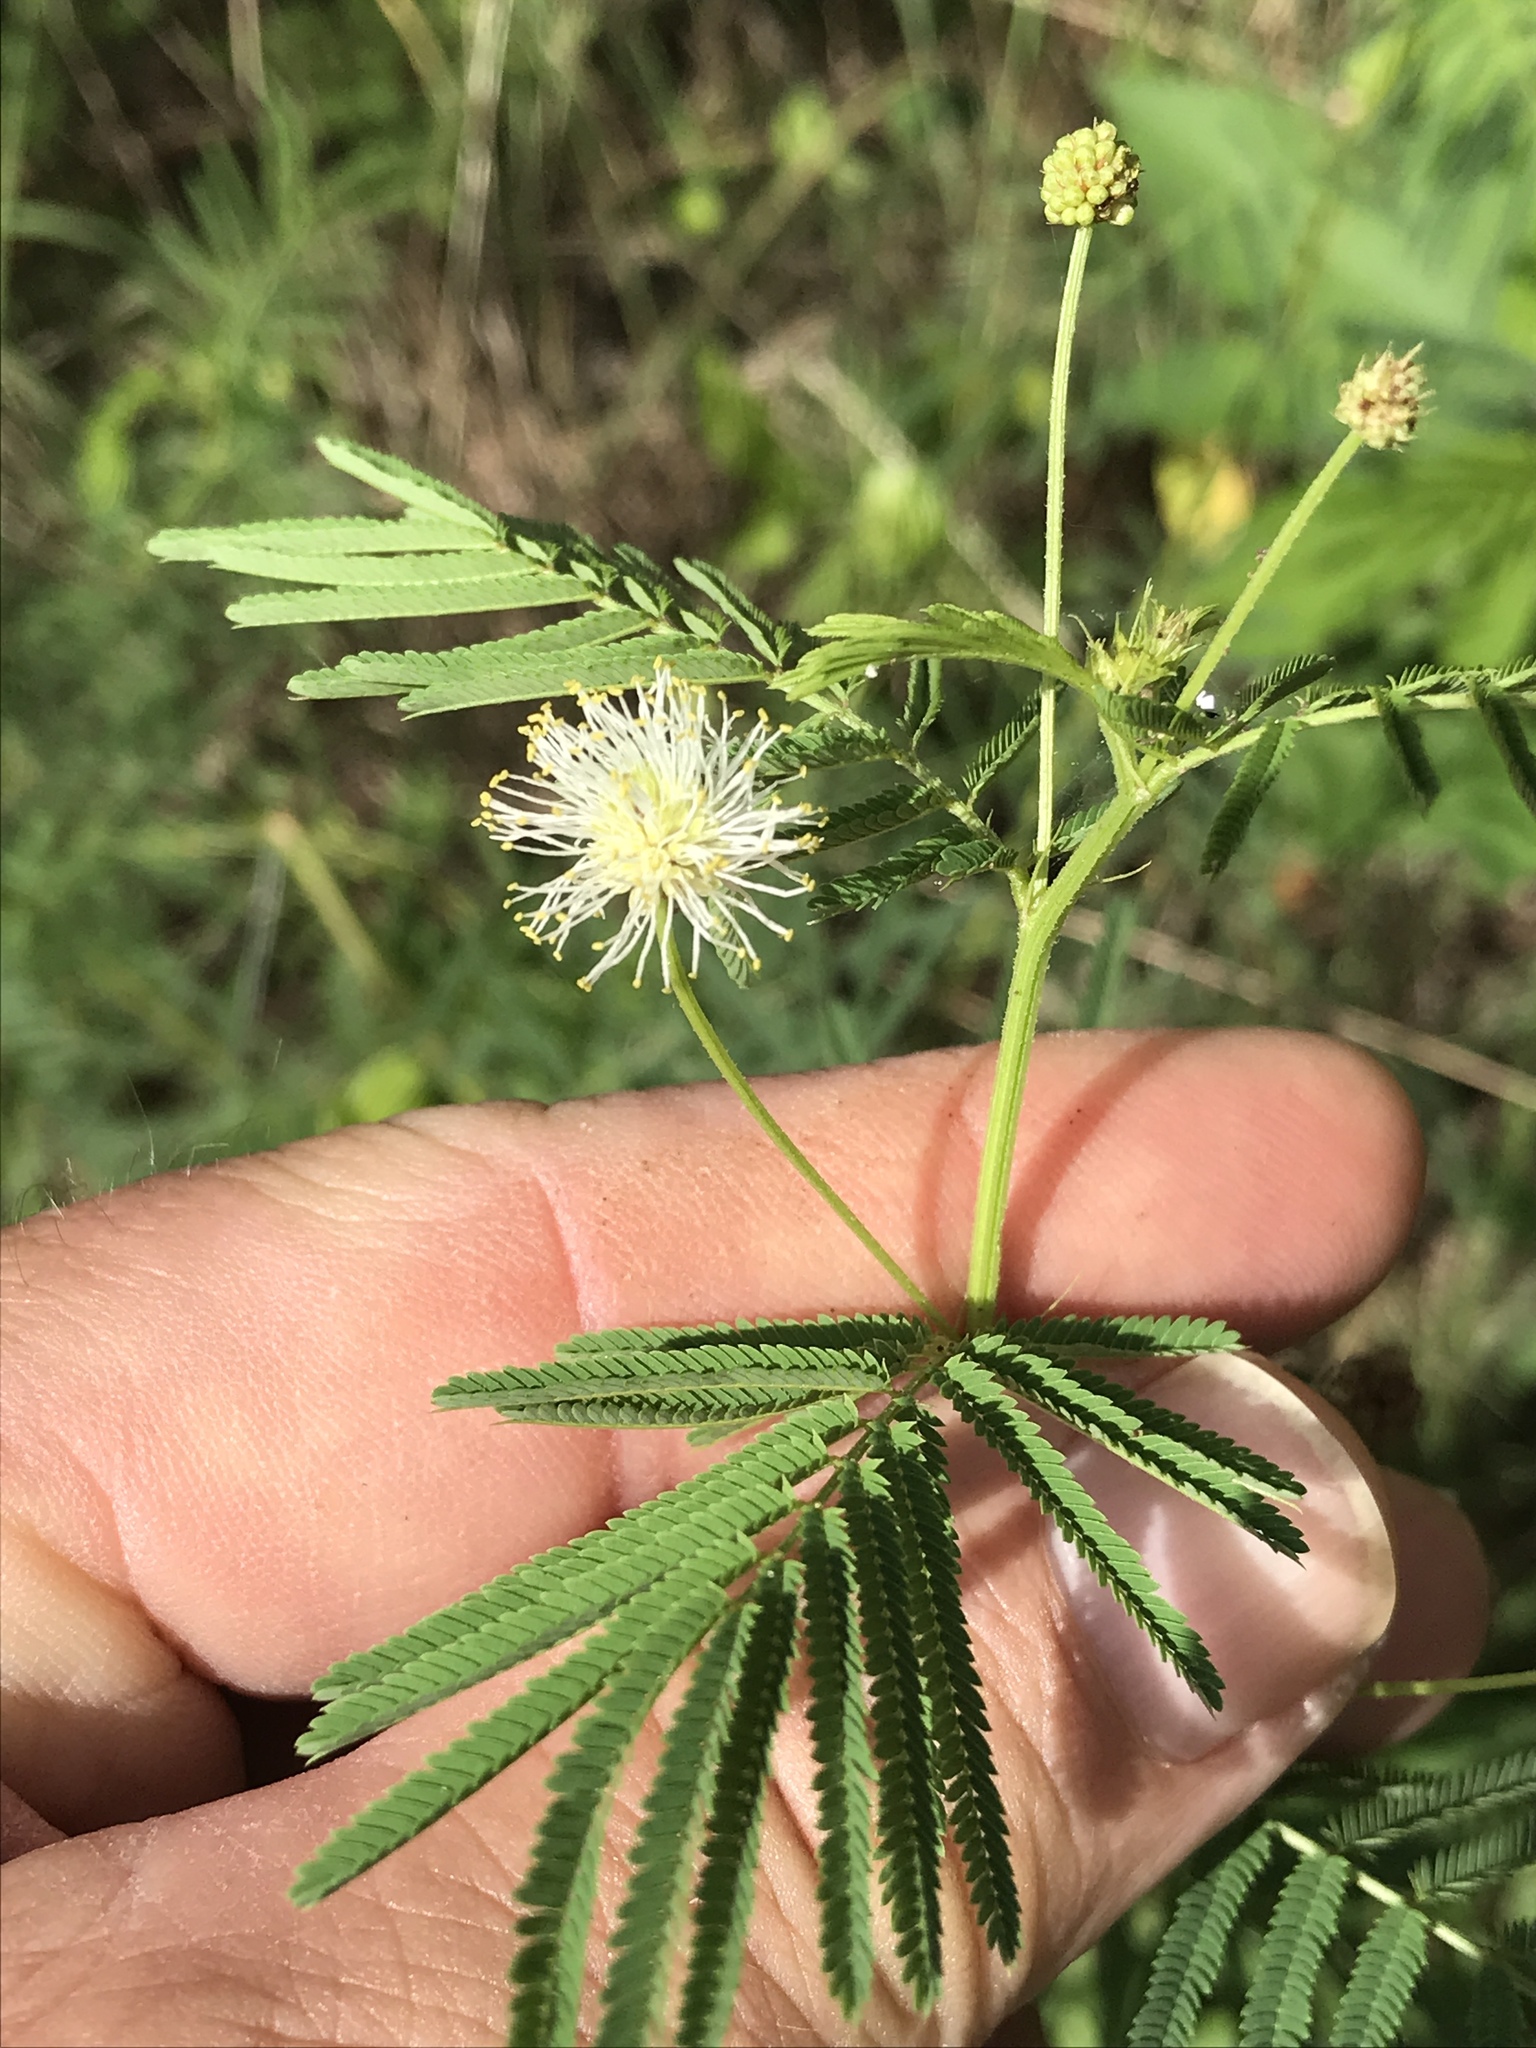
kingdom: Plantae
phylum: Tracheophyta
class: Magnoliopsida
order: Fabales
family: Fabaceae
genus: Desmanthus
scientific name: Desmanthus illinoensis
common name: Illinois bundle-flower
